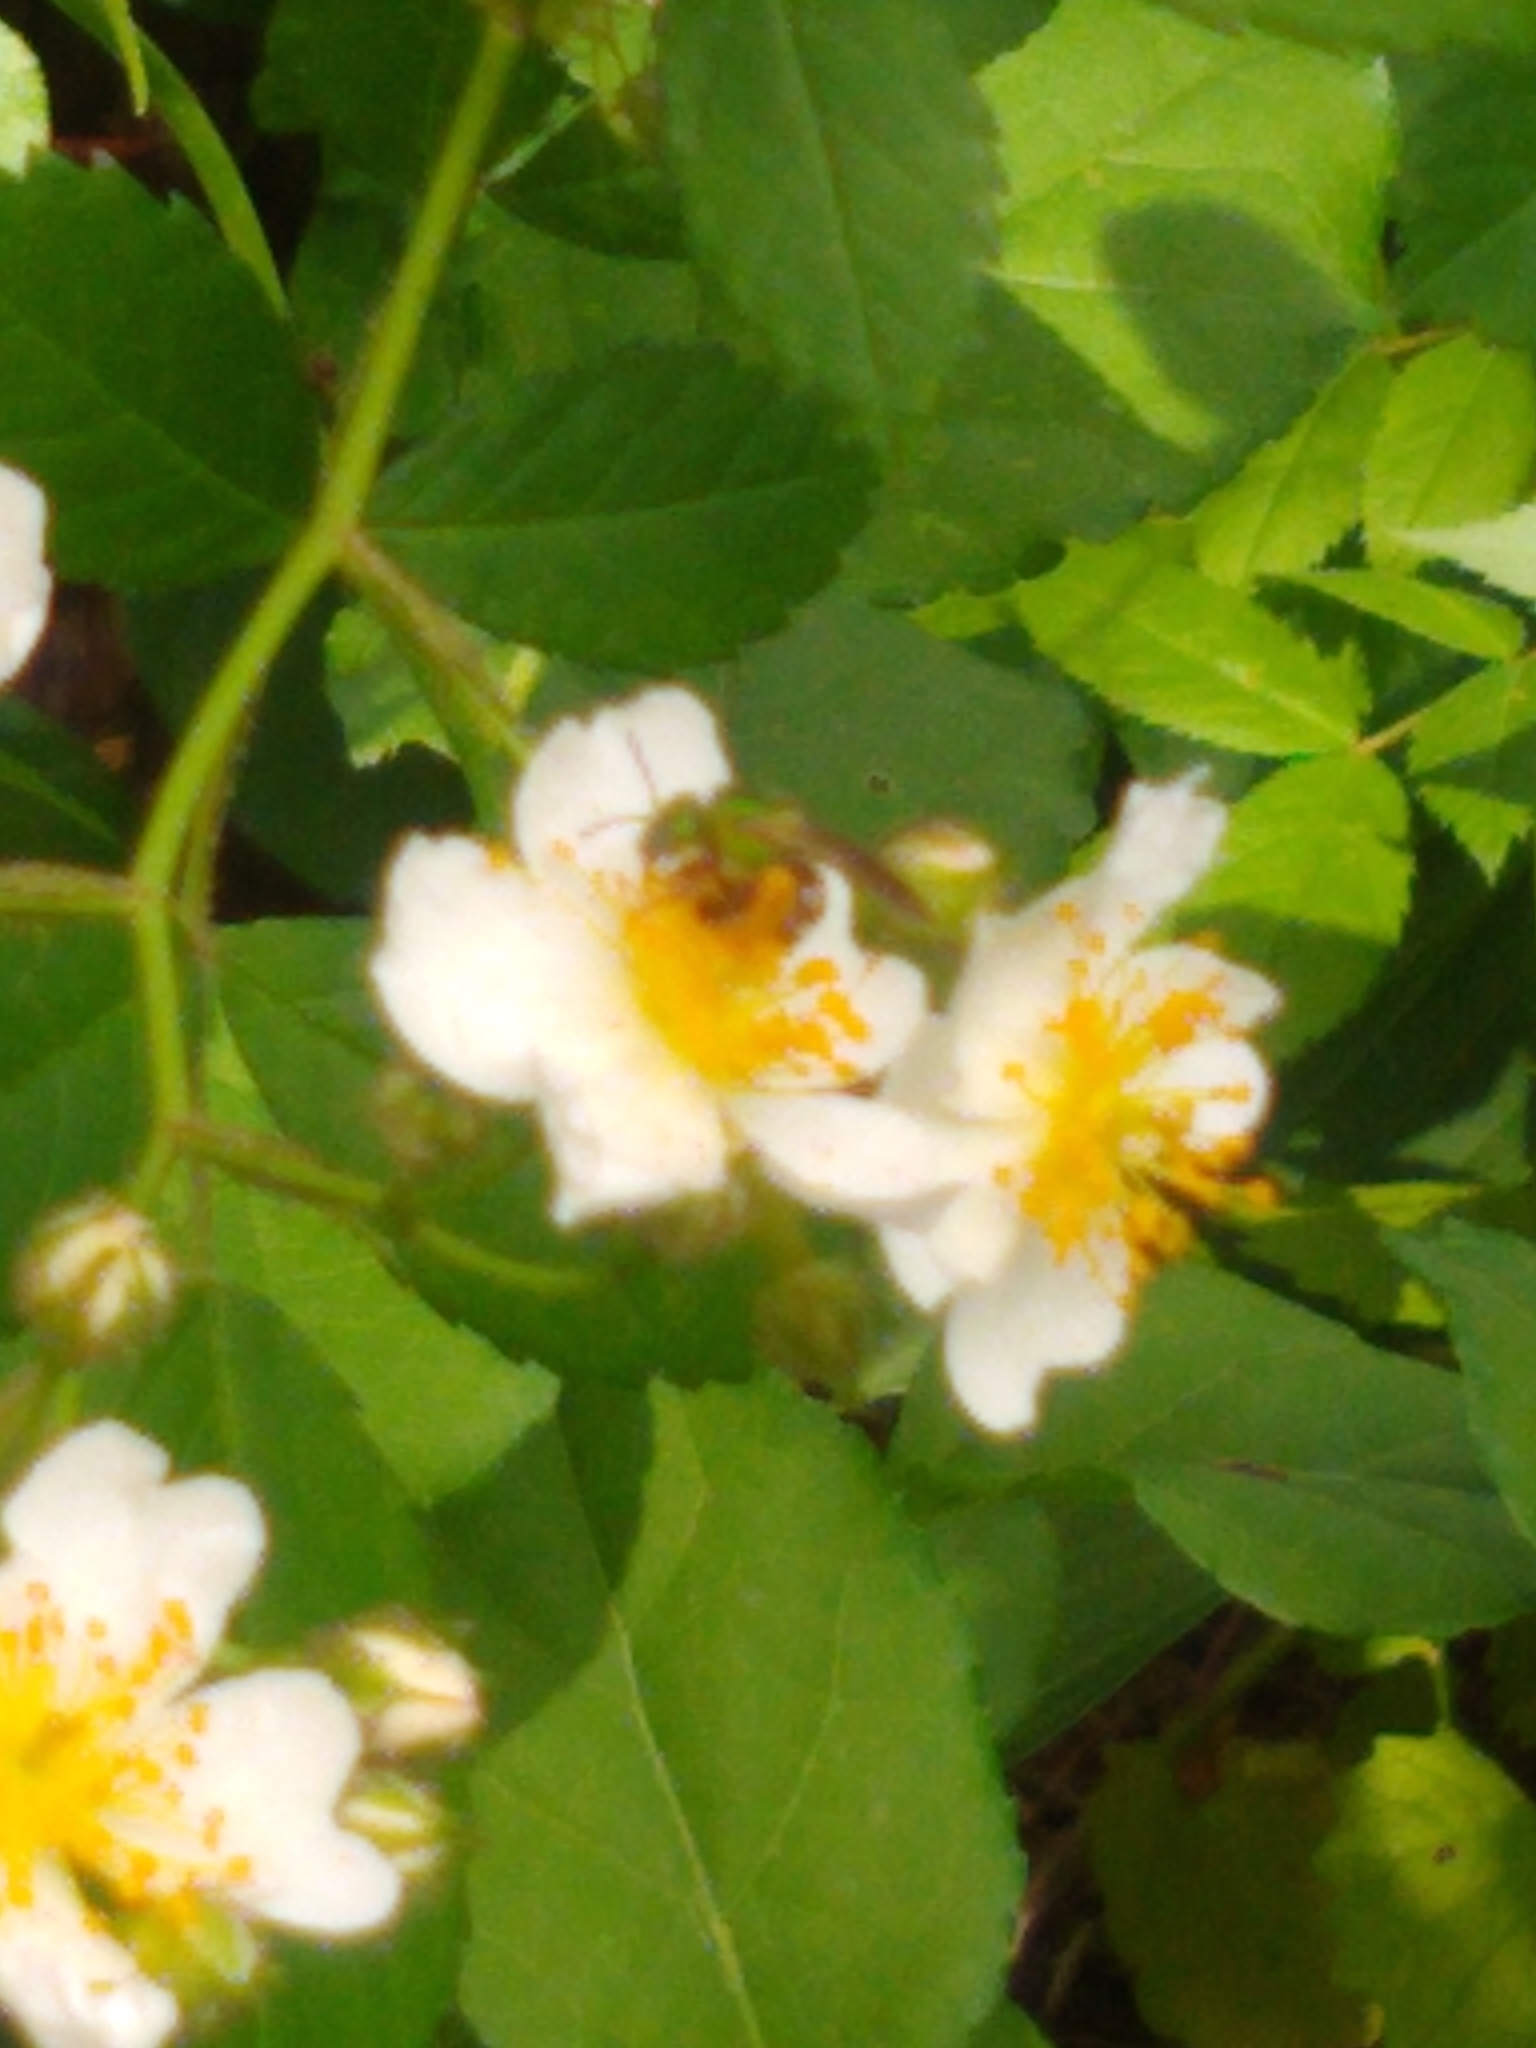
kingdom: Animalia
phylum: Arthropoda
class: Insecta
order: Hymenoptera
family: Halictidae
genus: Agapostemon
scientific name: Agapostemon virescens
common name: Bicolored striped sweat bee
